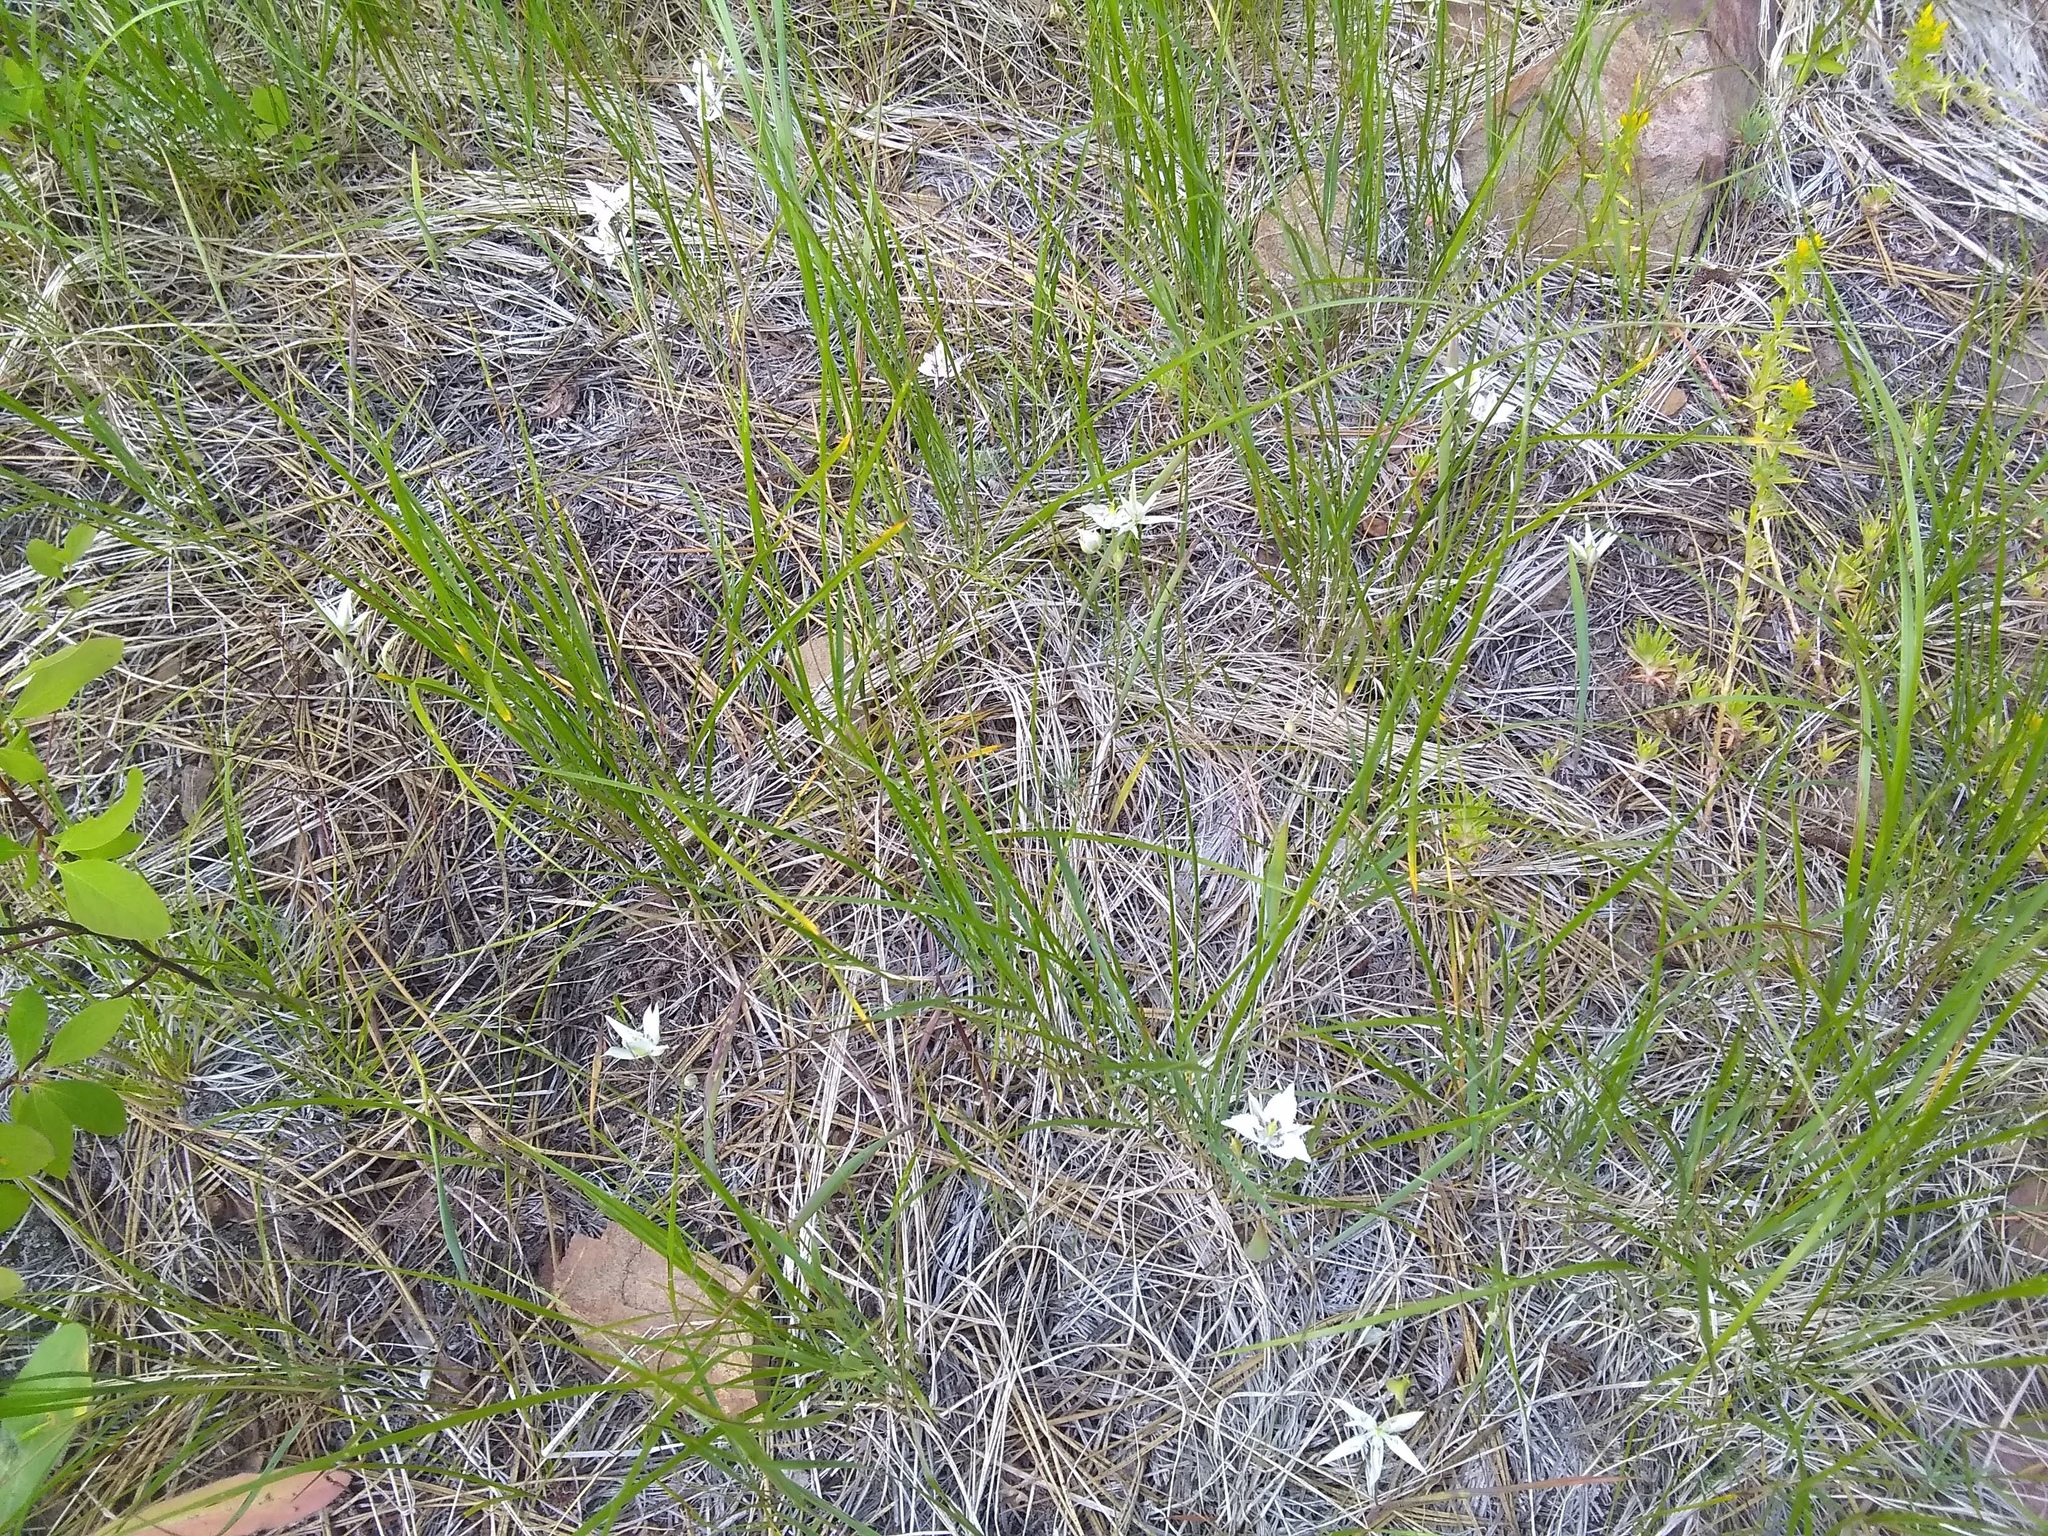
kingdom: Plantae
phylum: Tracheophyta
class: Liliopsida
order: Liliales
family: Liliaceae
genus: Calochortus
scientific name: Calochortus lyallii
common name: Lyall's mariposa lily
